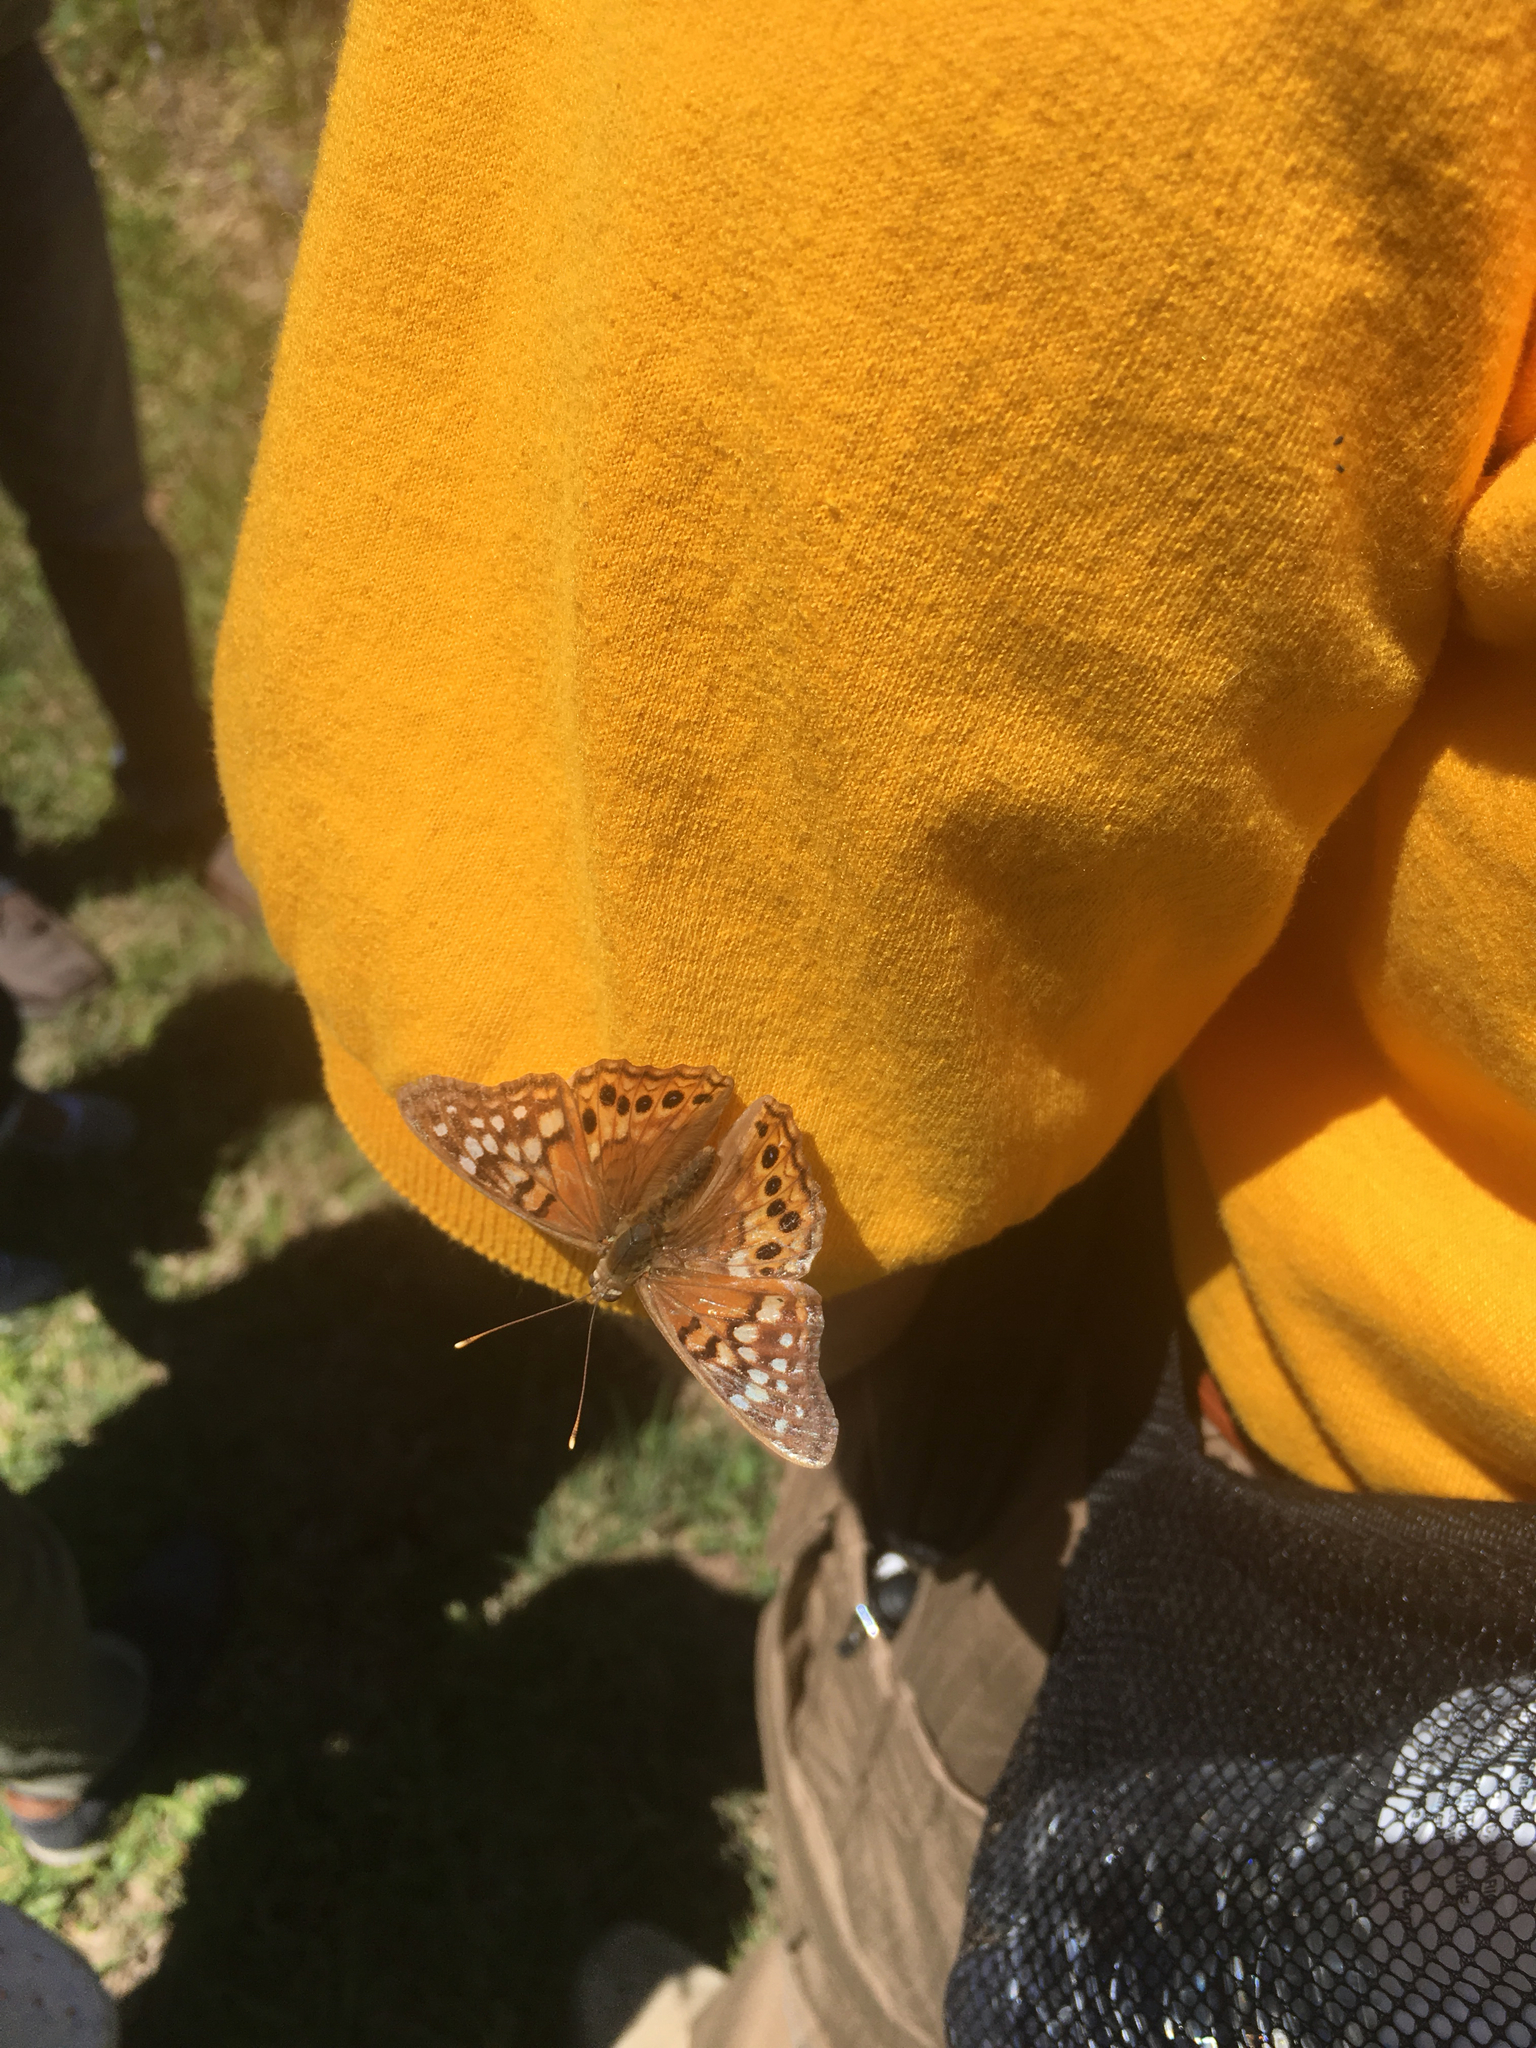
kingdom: Animalia
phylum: Arthropoda
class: Insecta
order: Lepidoptera
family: Nymphalidae
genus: Asterocampa
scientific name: Asterocampa clyton
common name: Tawny emperor
